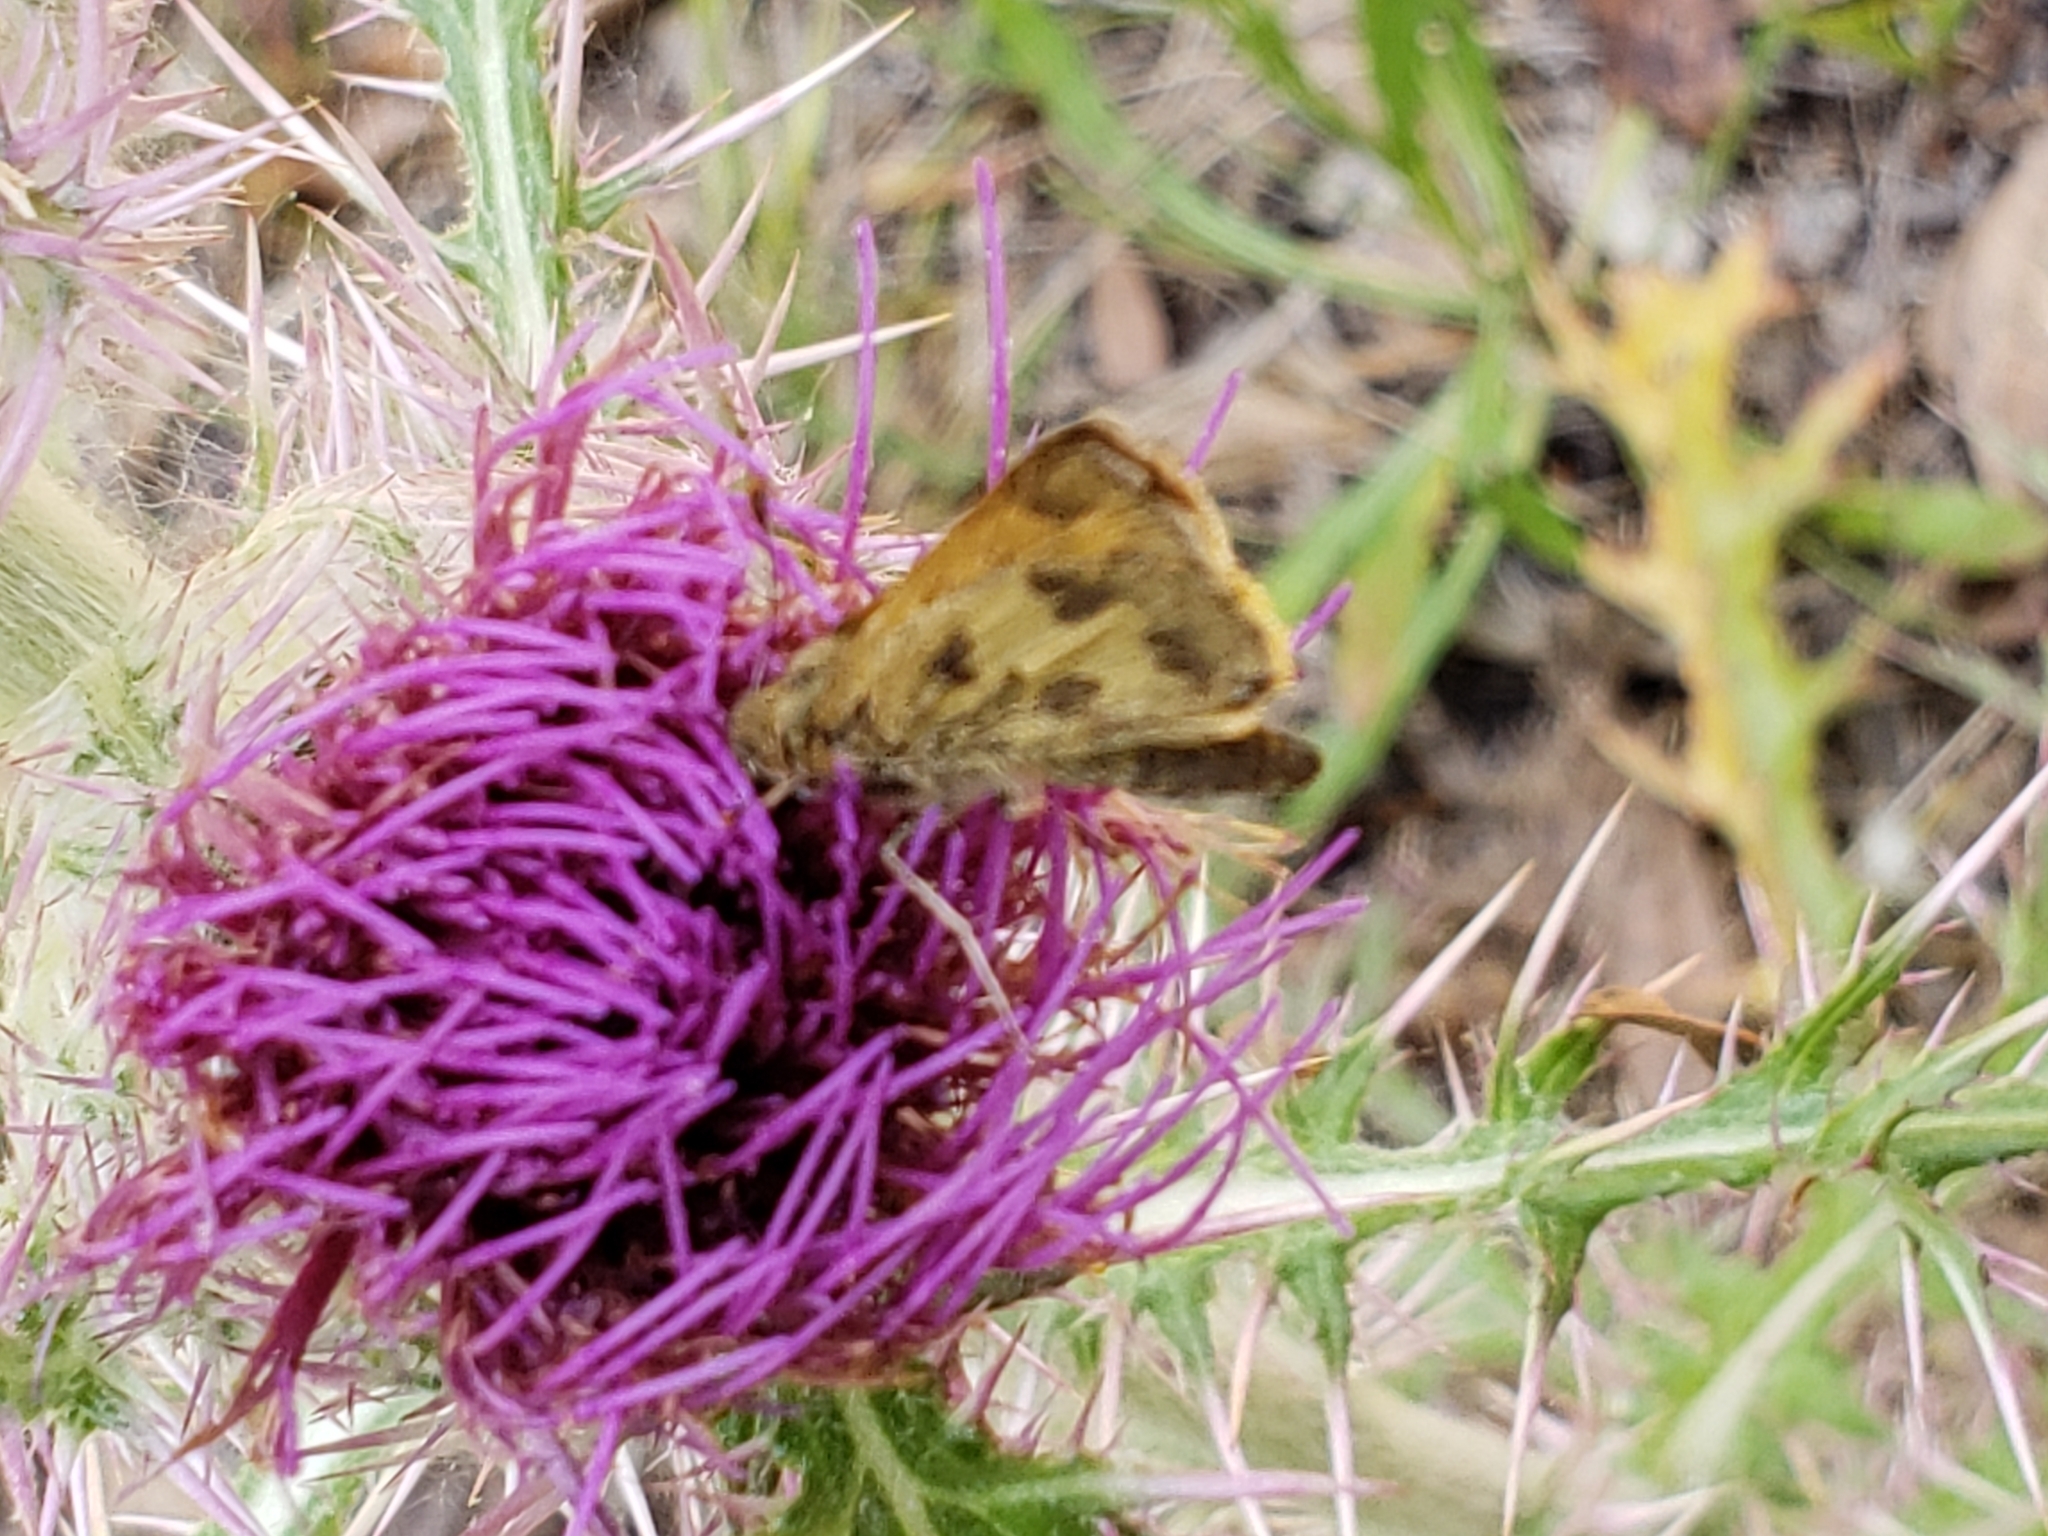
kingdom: Animalia
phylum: Arthropoda
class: Insecta
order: Lepidoptera
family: Hesperiidae
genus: Polites
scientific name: Polites vibex
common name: Whirlabout
